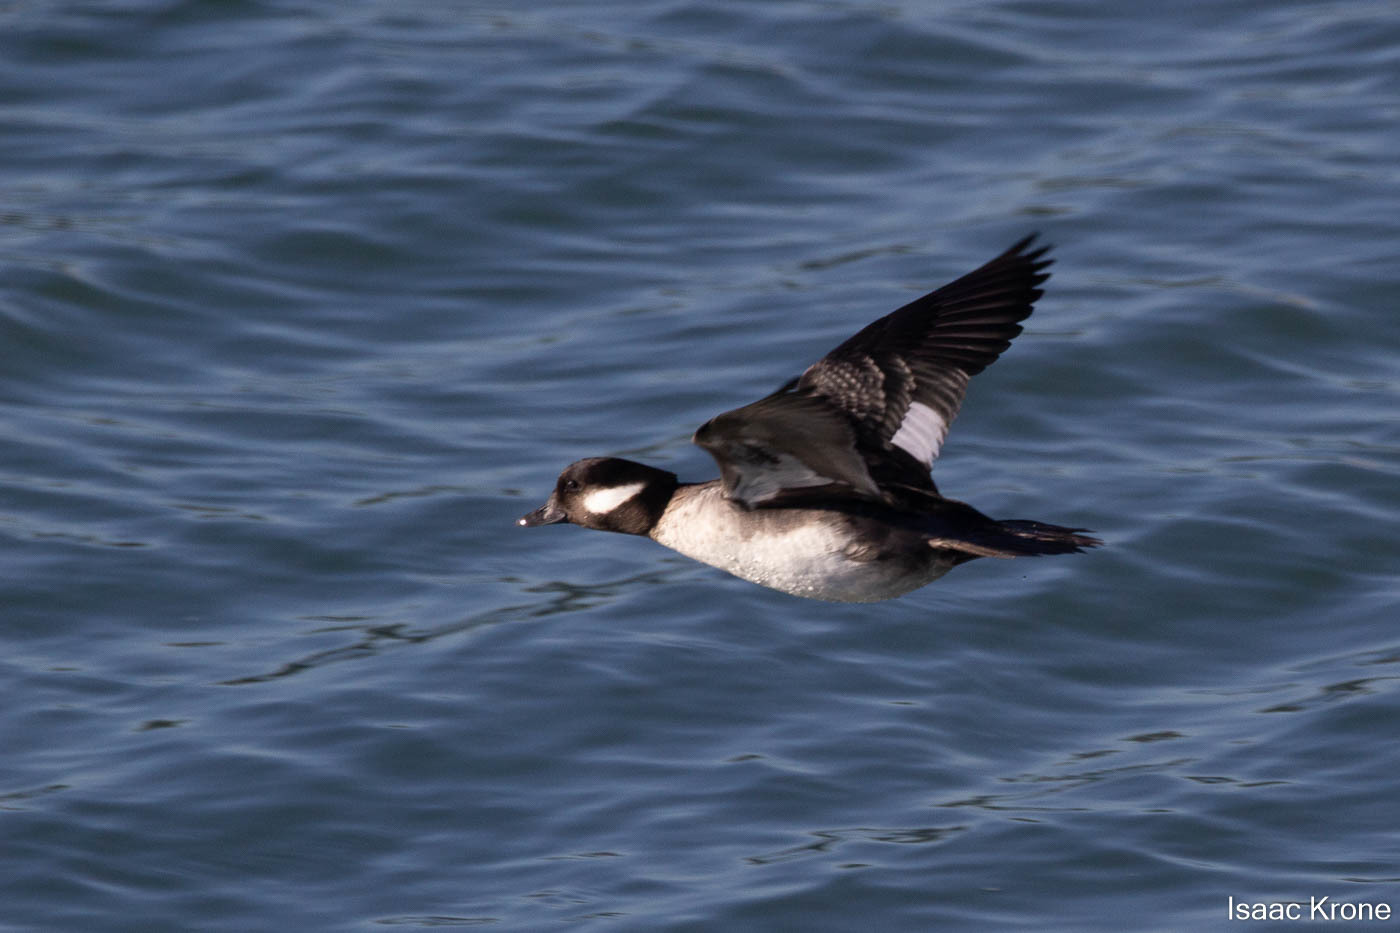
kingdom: Animalia
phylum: Chordata
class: Aves
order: Anseriformes
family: Anatidae
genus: Bucephala
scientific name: Bucephala albeola
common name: Bufflehead
